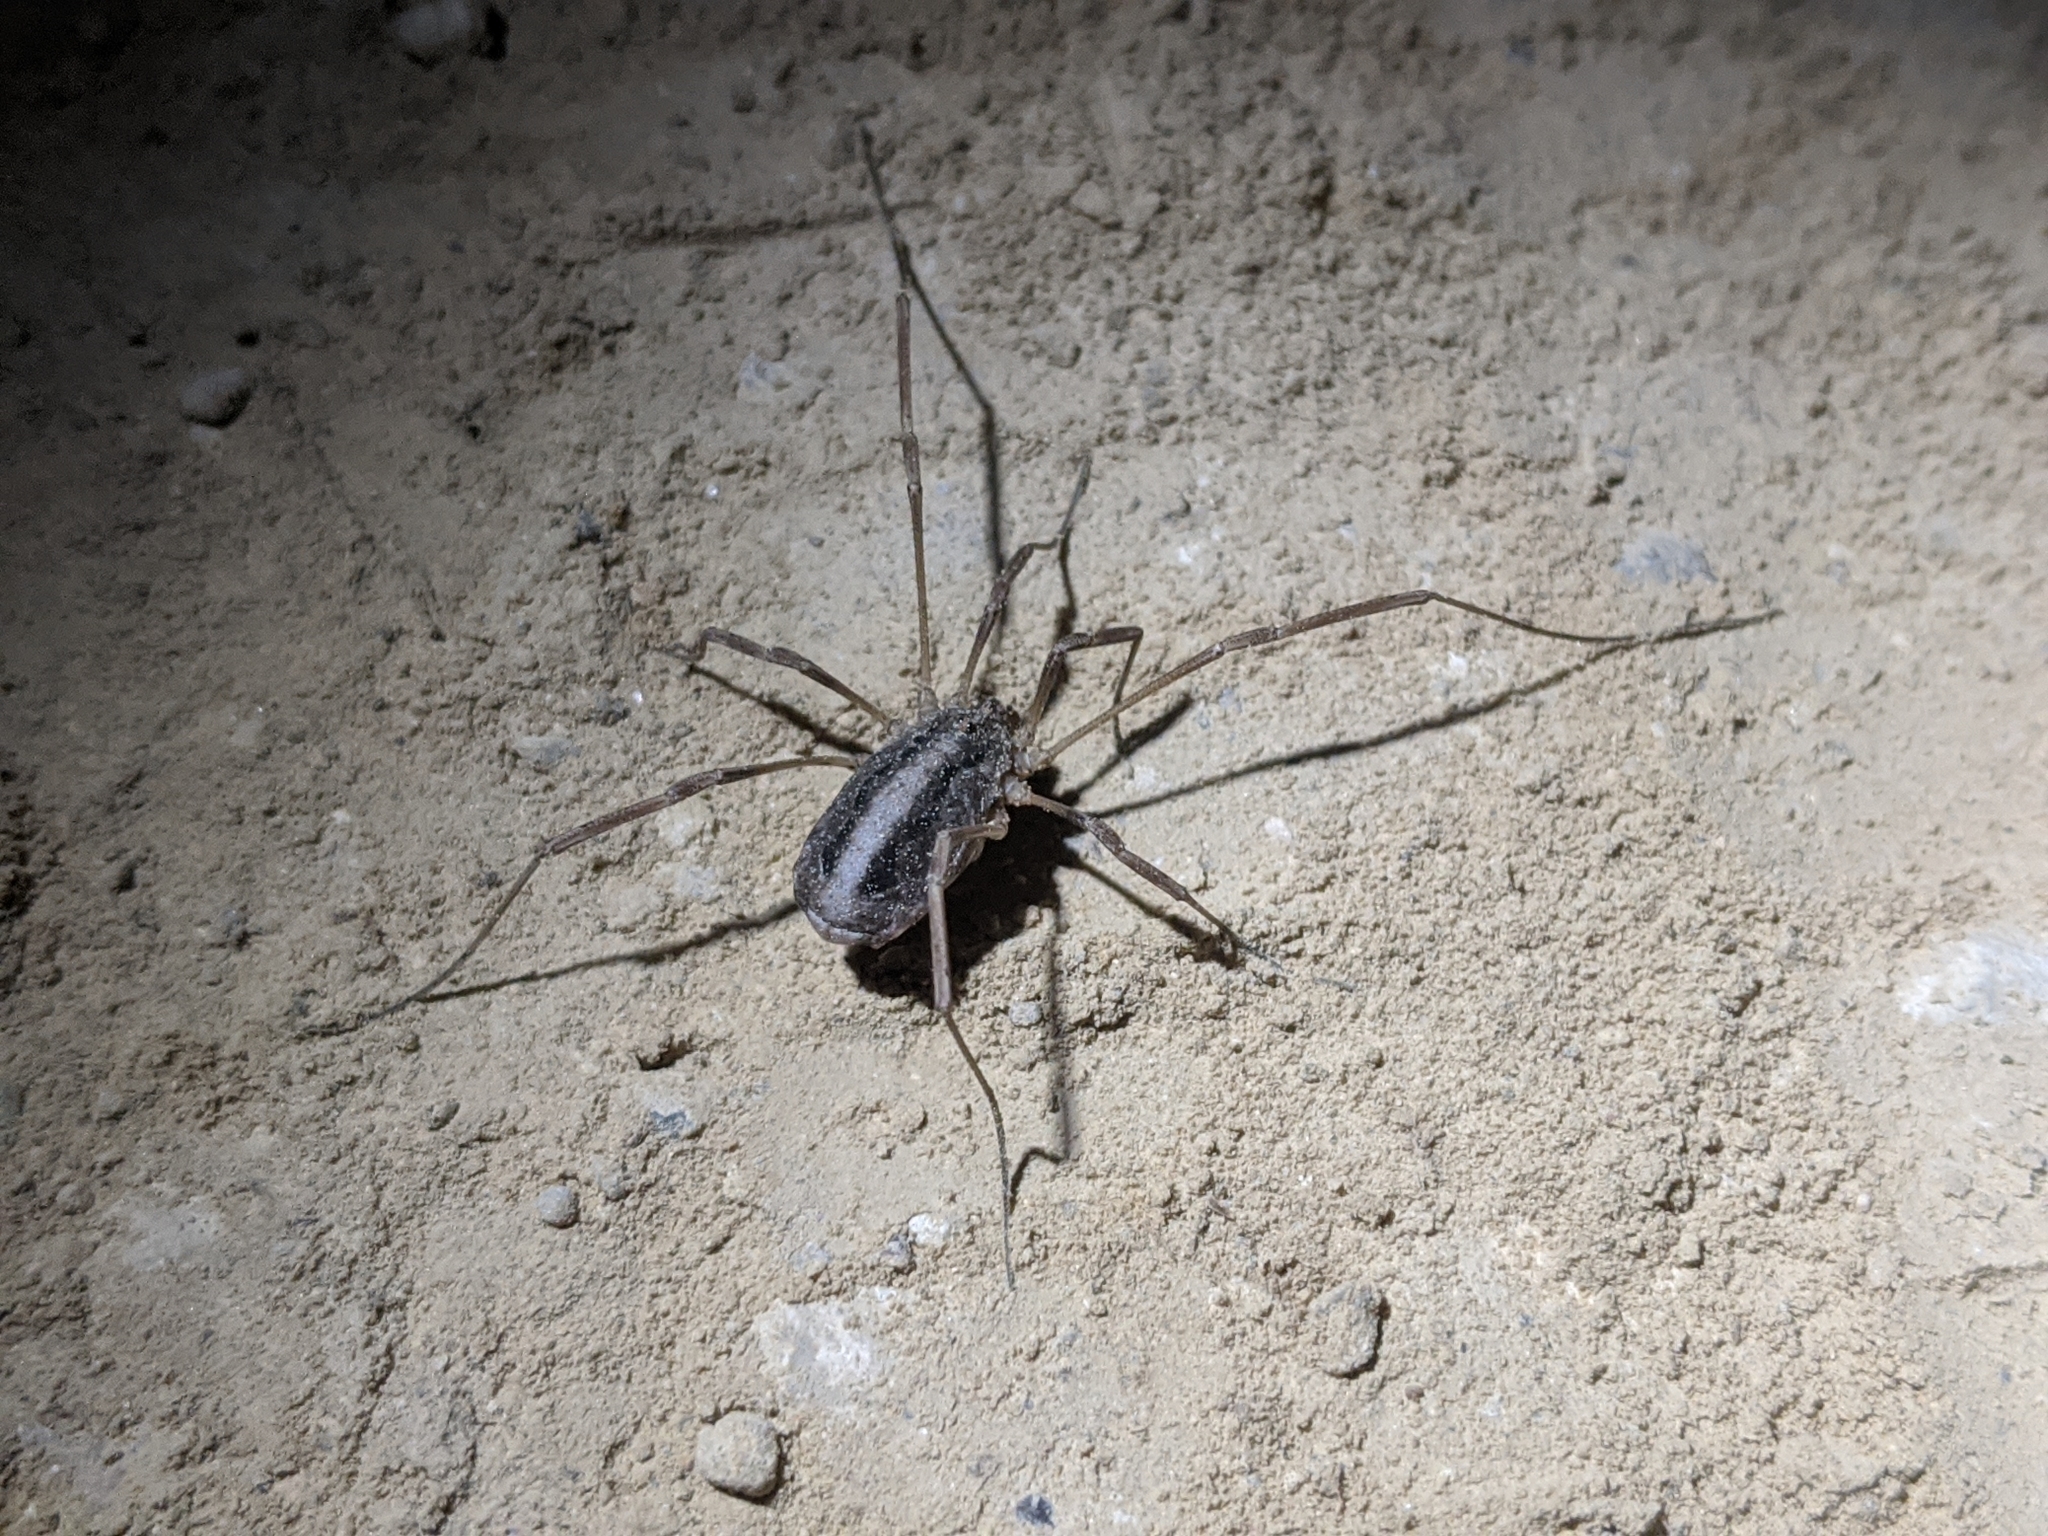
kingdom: Animalia
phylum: Arthropoda
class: Arachnida
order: Opiliones
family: Phalangiidae
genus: Odiellus
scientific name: Odiellus troguloides
